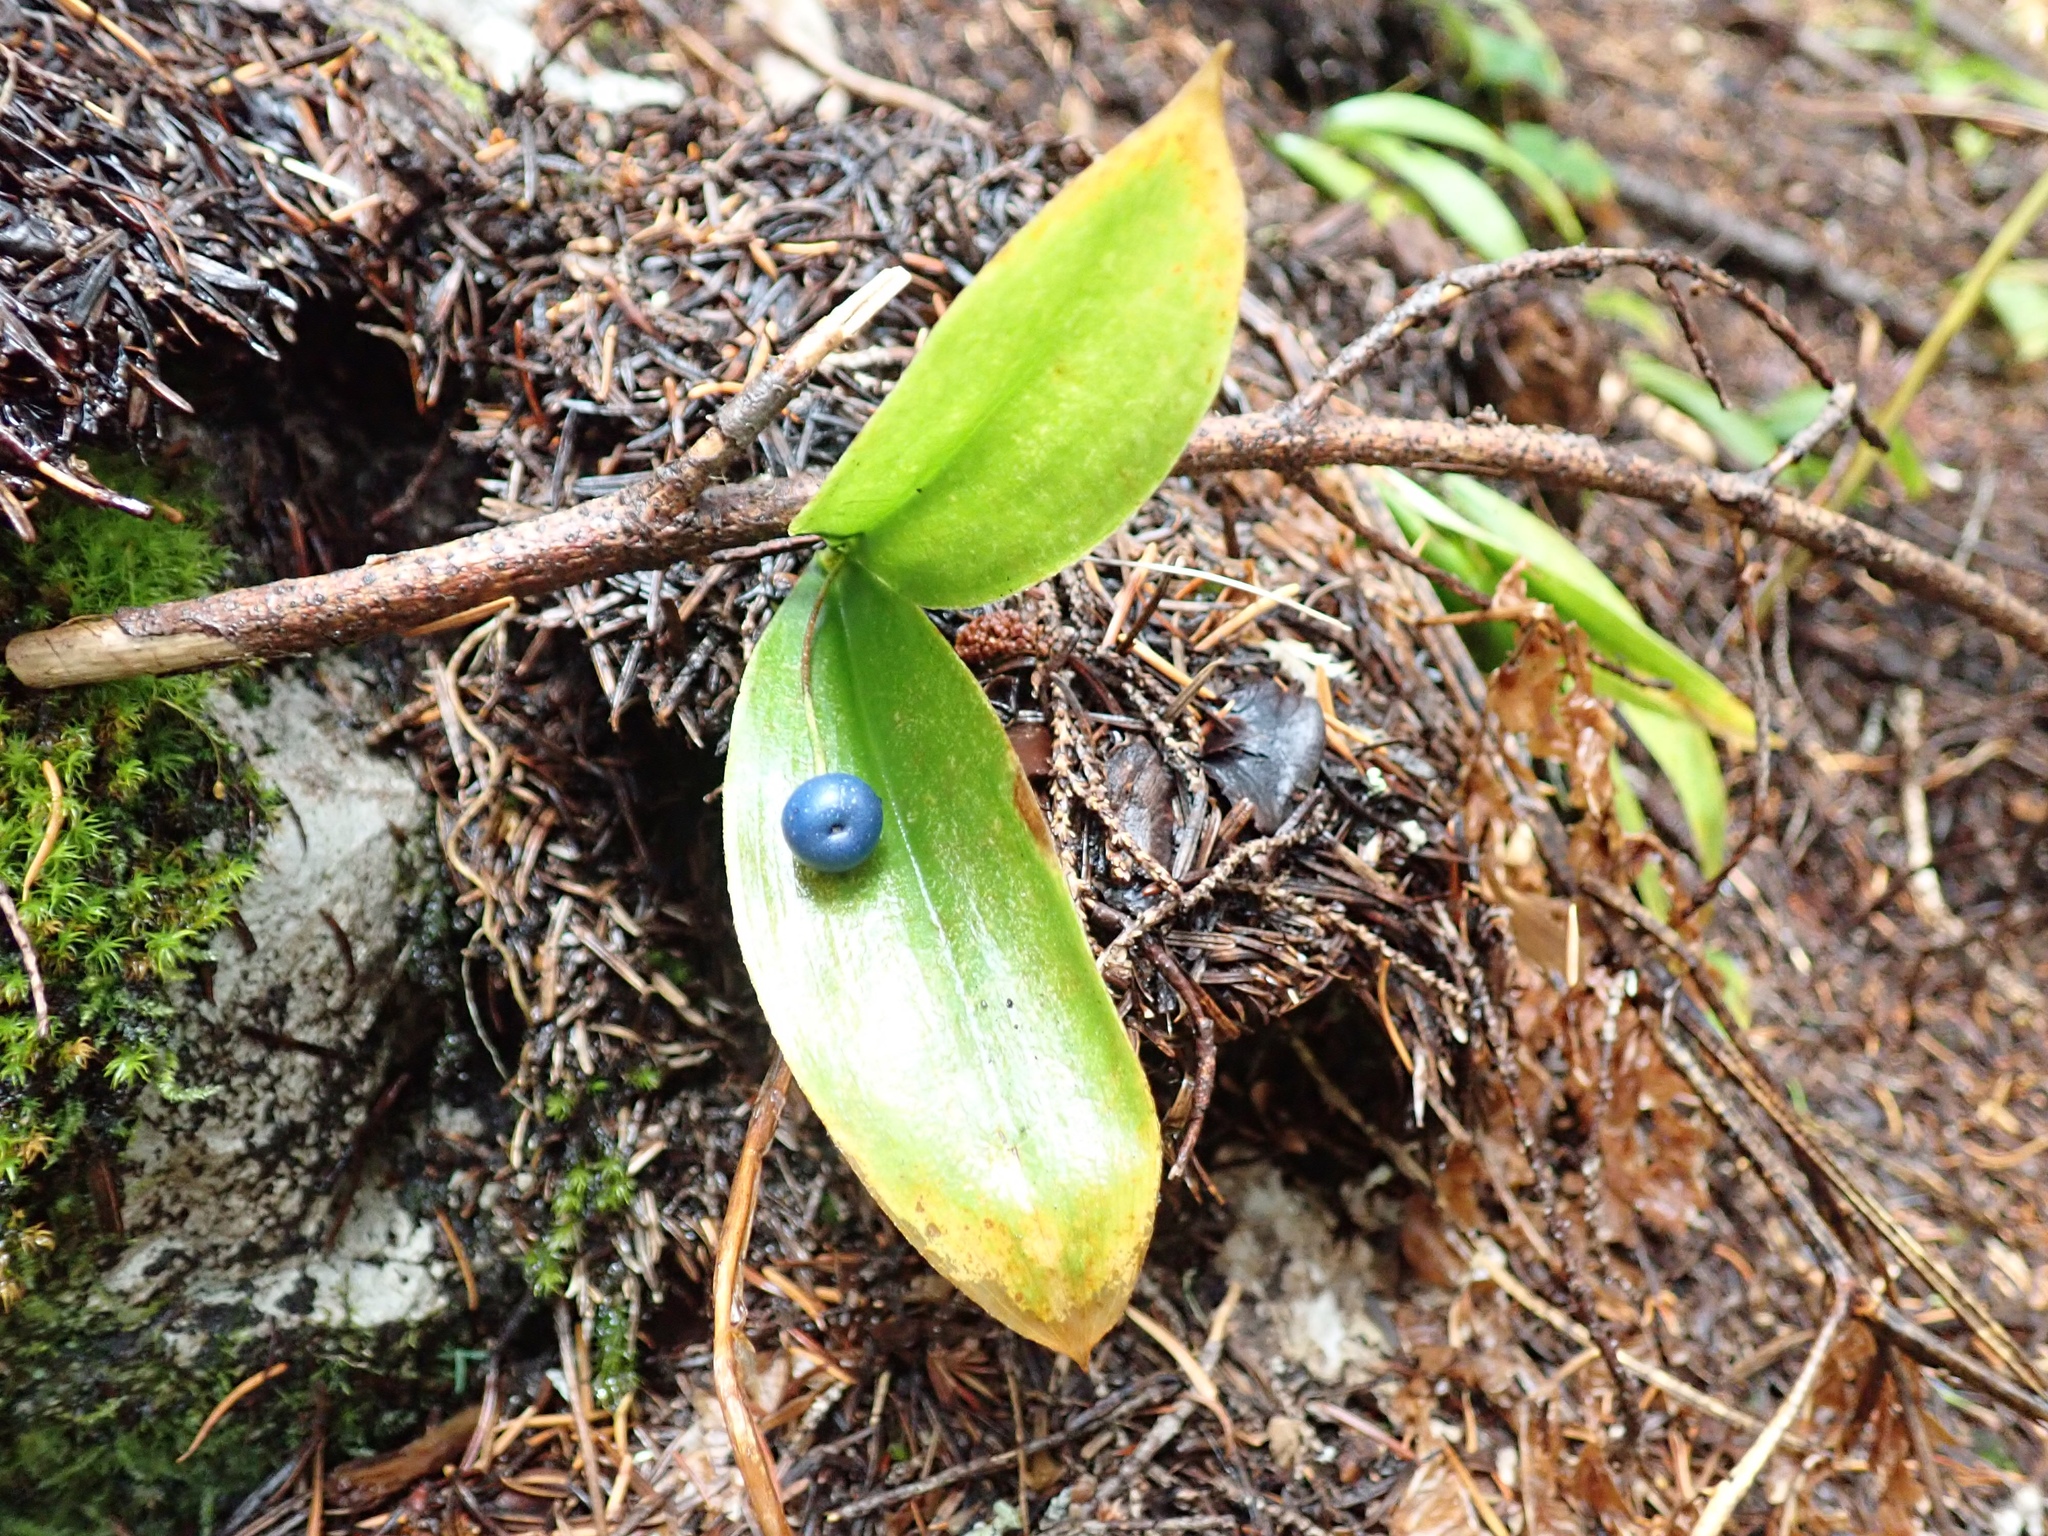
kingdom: Plantae
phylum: Tracheophyta
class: Liliopsida
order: Liliales
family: Liliaceae
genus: Clintonia
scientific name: Clintonia uniflora
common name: Queen's cup
